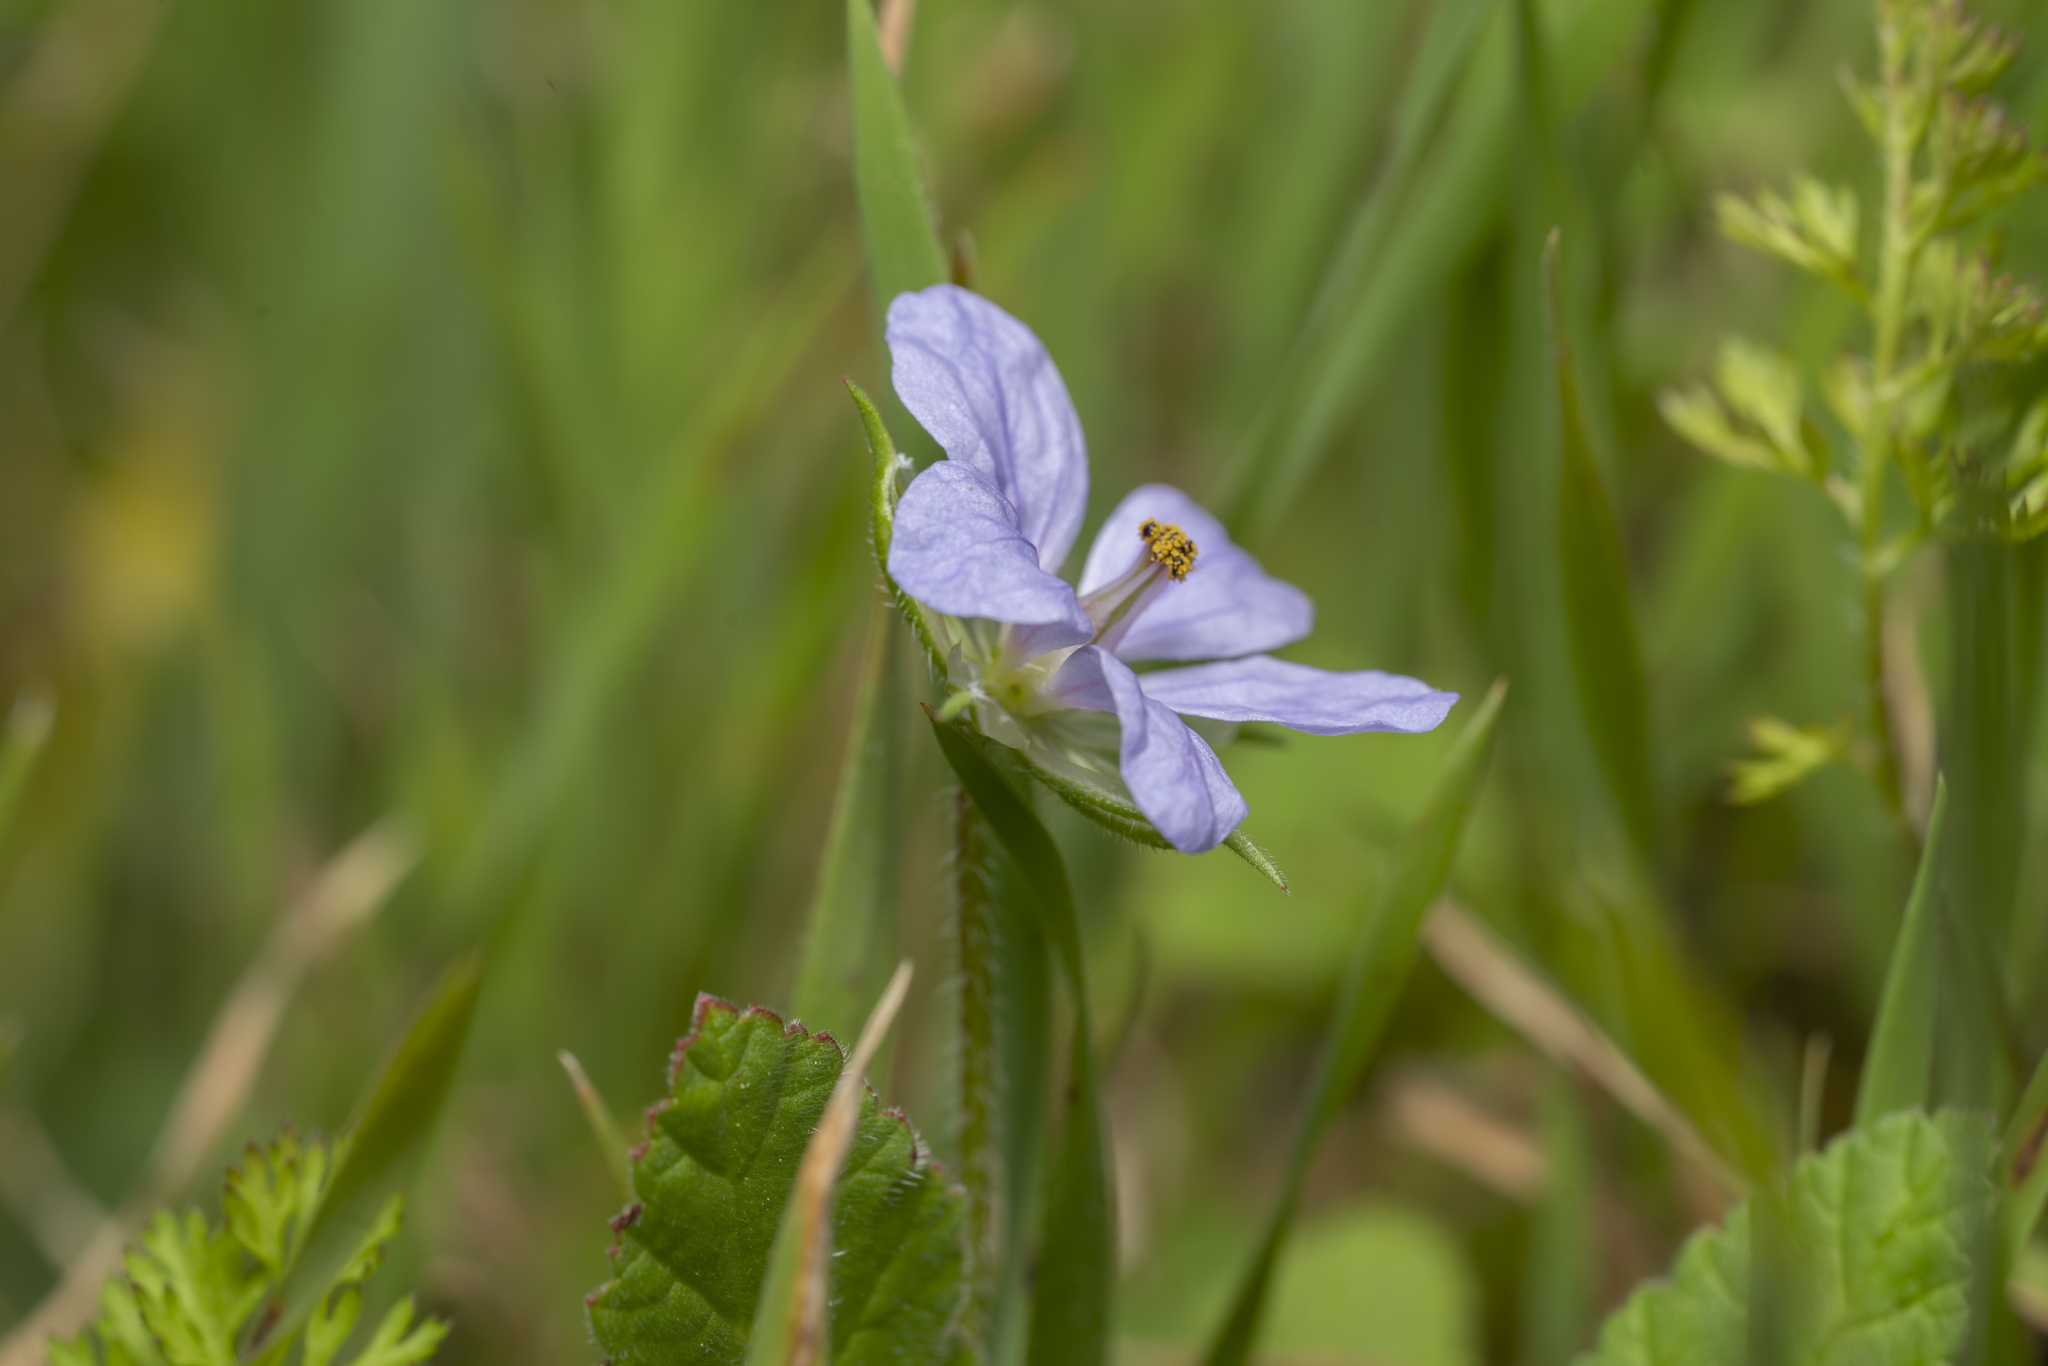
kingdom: Plantae
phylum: Tracheophyta
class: Magnoliopsida
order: Geraniales
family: Geraniaceae
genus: Erodium
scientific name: Erodium gruinum
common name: Iranian stork's bill
